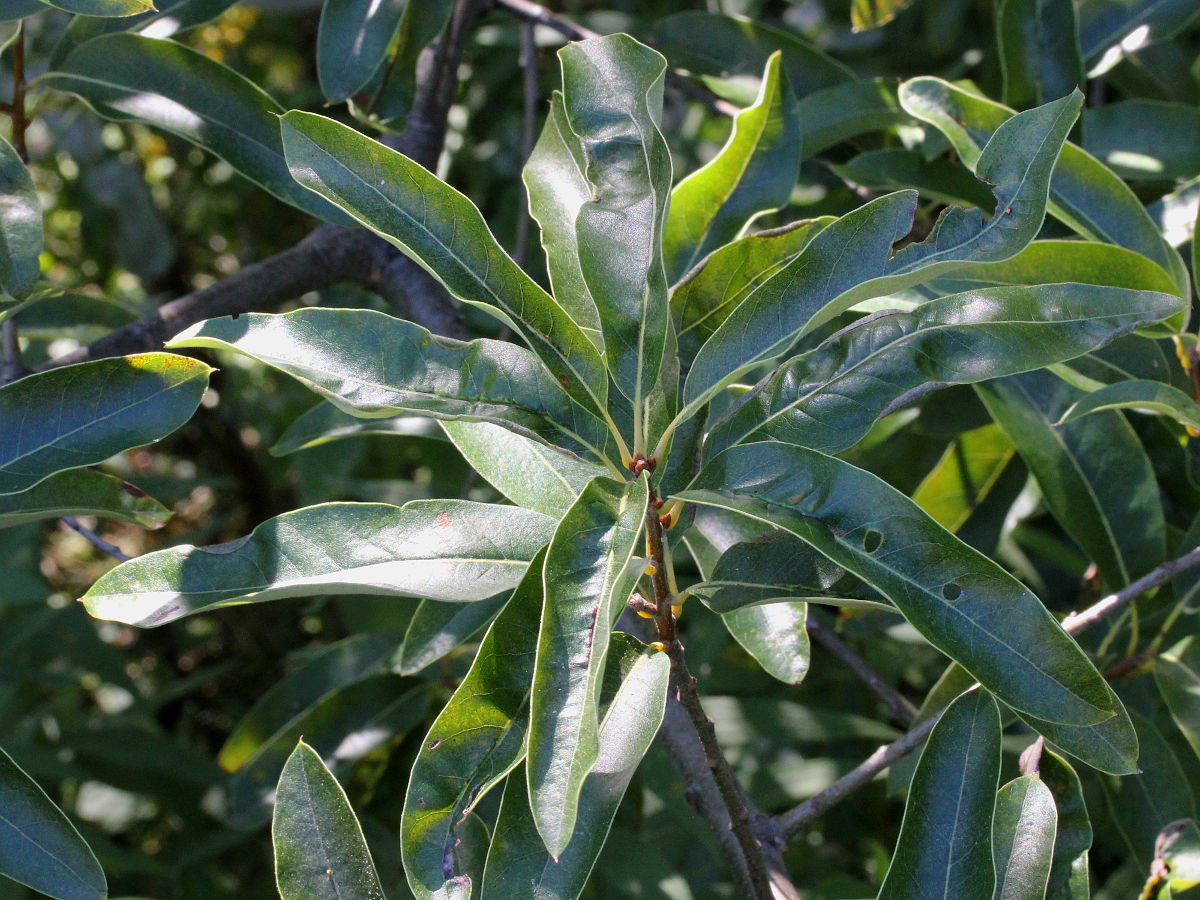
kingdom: Plantae
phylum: Tracheophyta
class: Magnoliopsida
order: Fagales
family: Fagaceae
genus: Quercus
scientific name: Quercus imbricaria
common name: Shingle oak
